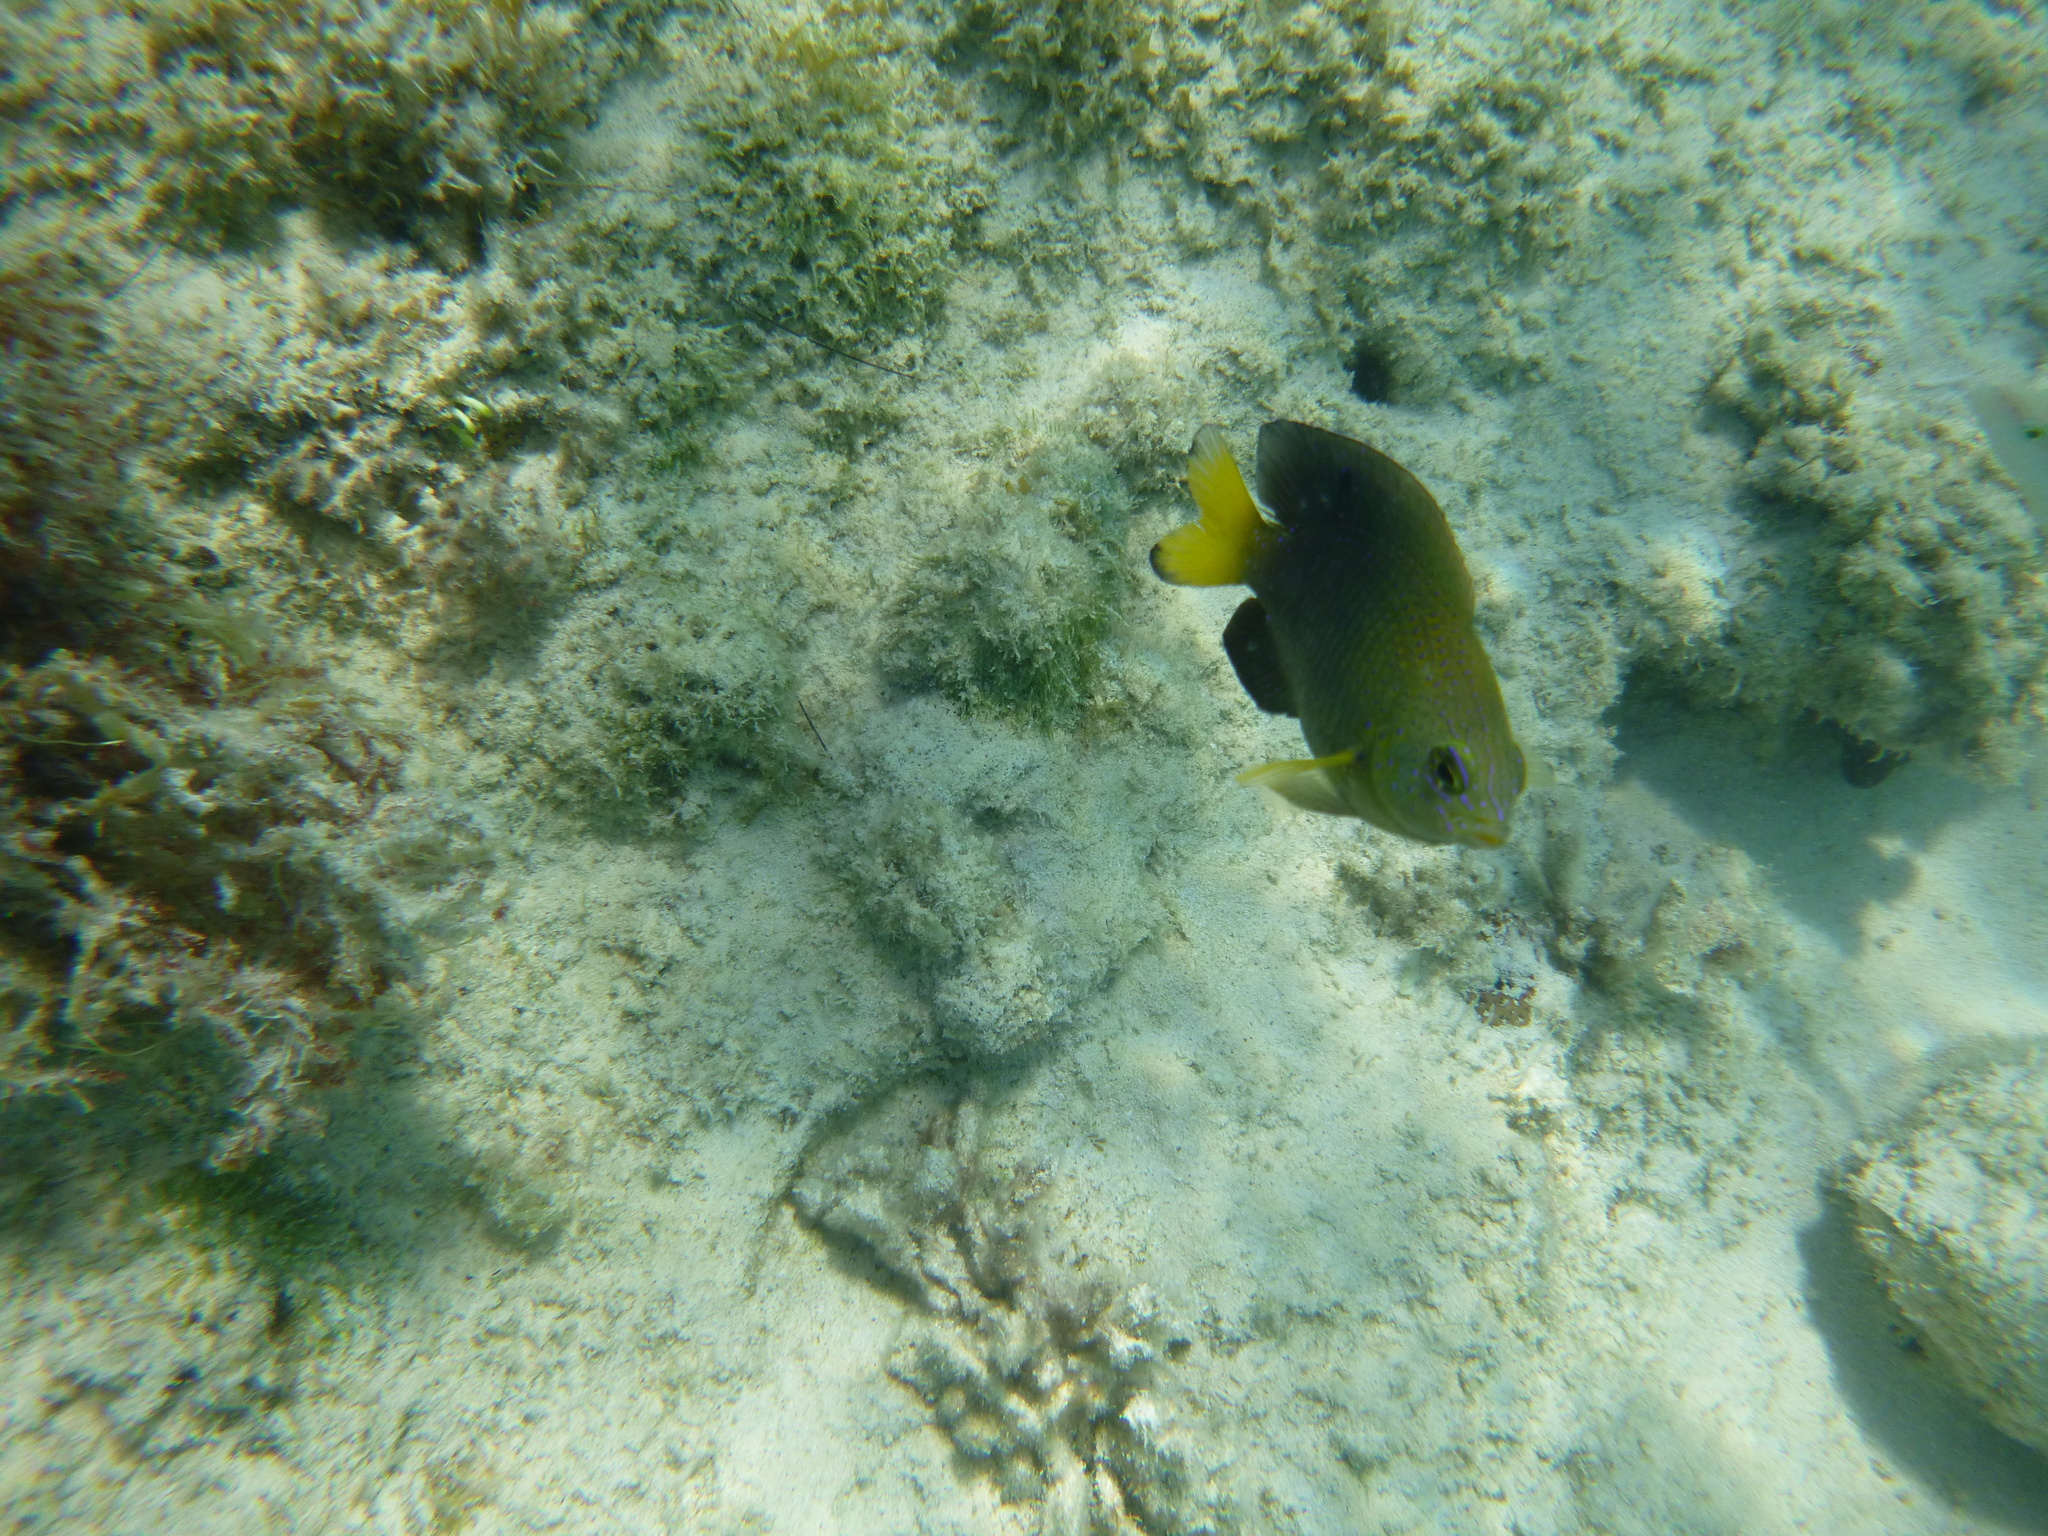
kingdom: Animalia
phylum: Chordata
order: Perciformes
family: Pomacentridae
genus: Stegastes
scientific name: Stegastes leucostictus
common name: Beaugregory
